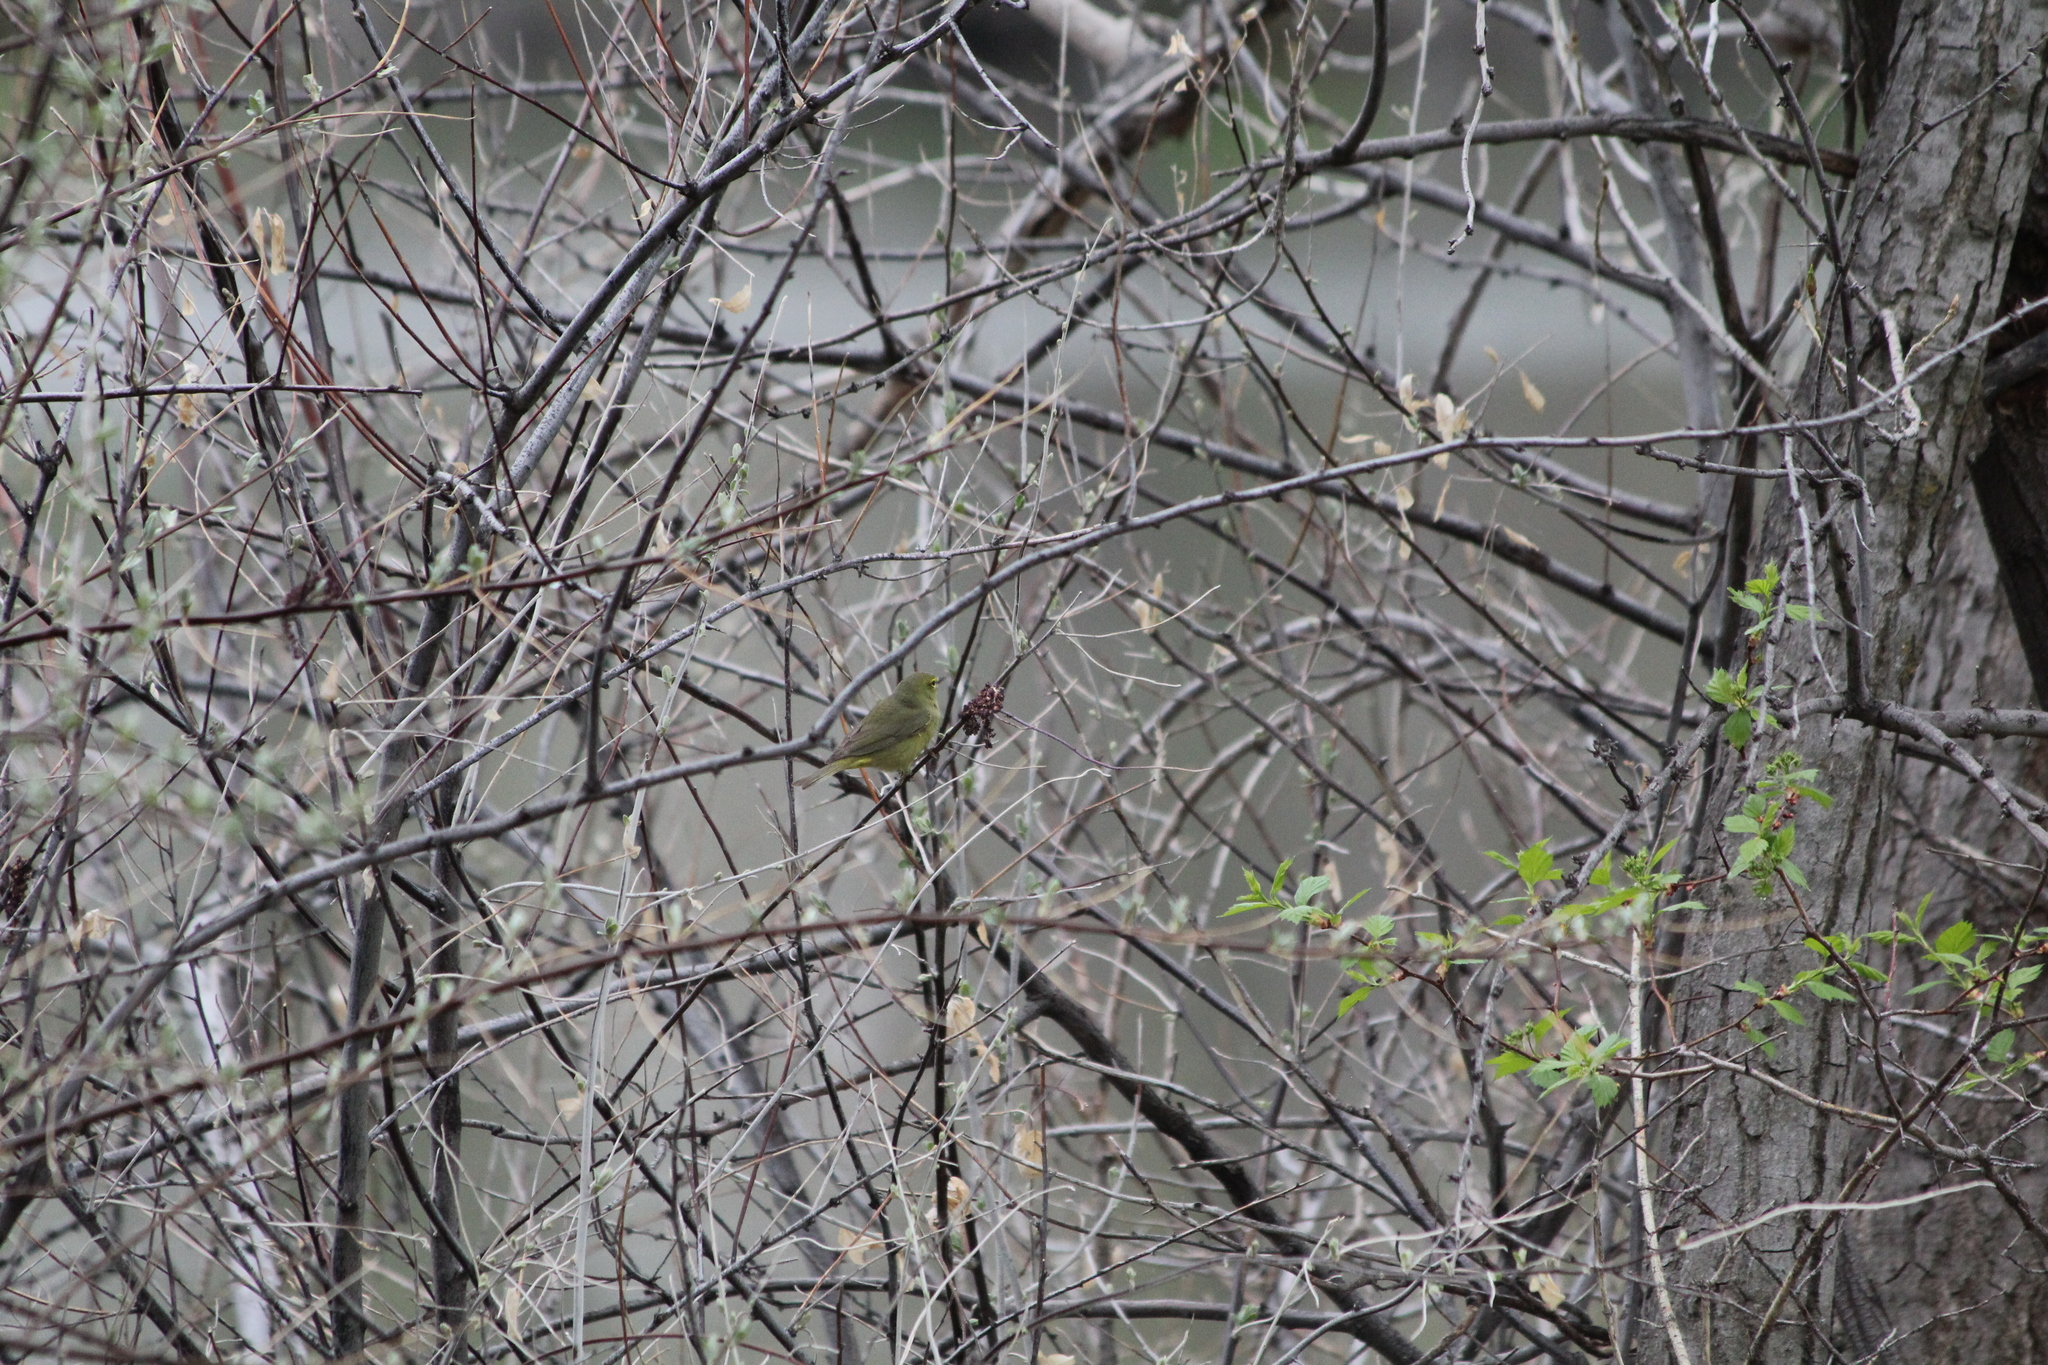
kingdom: Animalia
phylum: Chordata
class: Aves
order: Passeriformes
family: Parulidae
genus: Leiothlypis
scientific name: Leiothlypis celata
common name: Orange-crowned warbler
